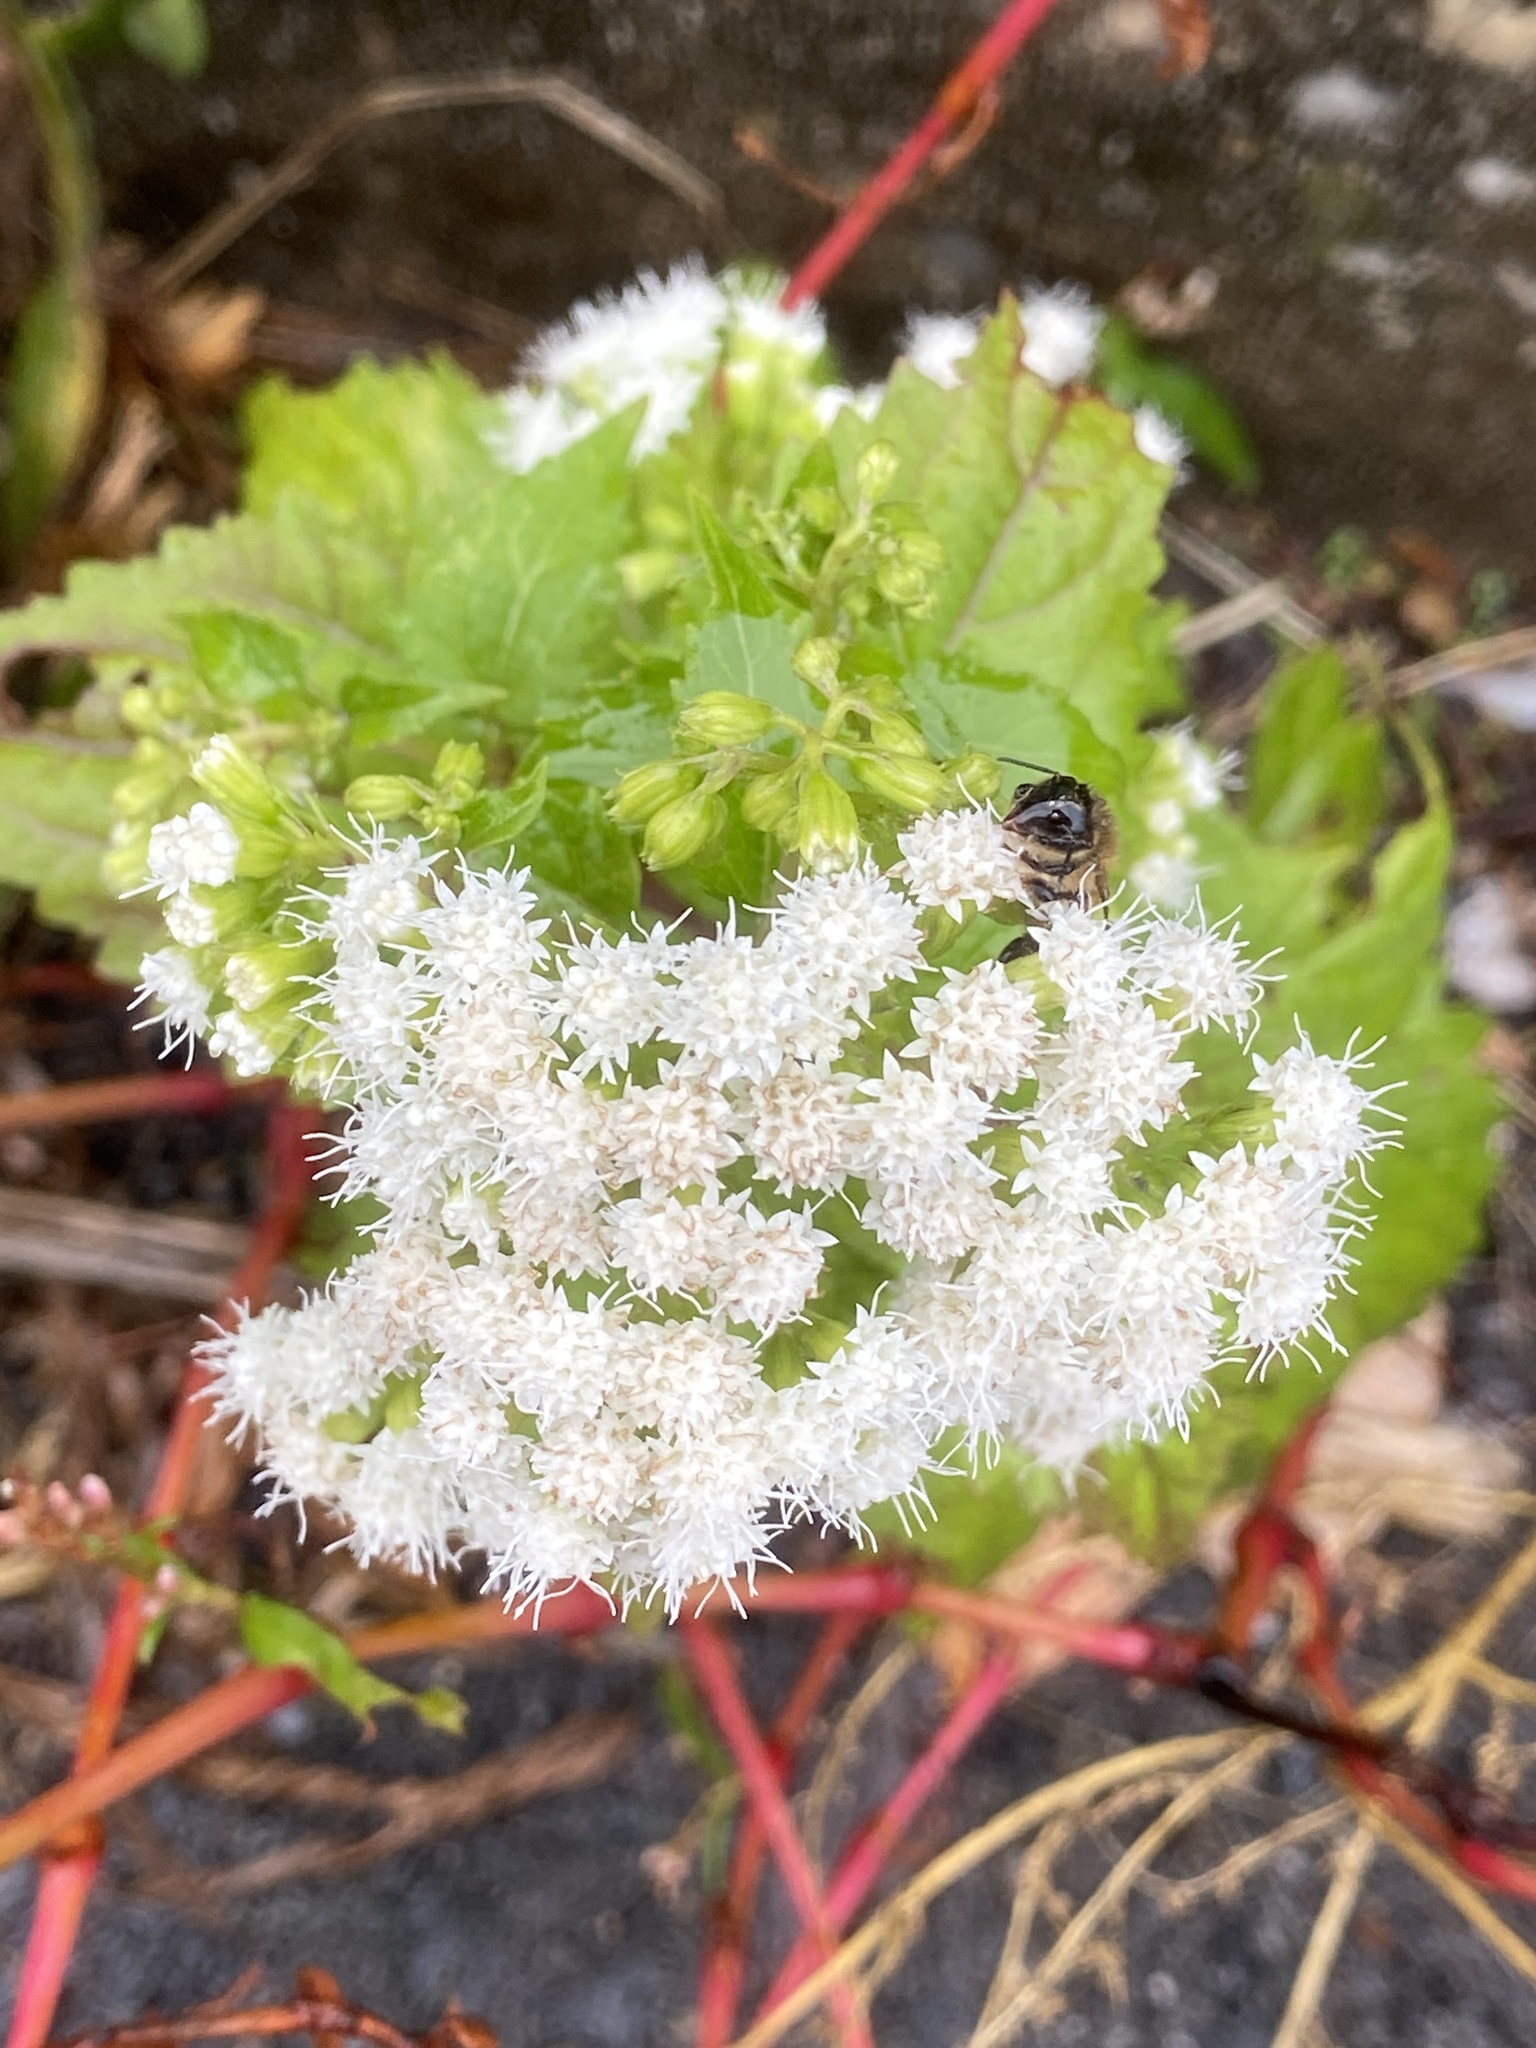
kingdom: Plantae
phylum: Tracheophyta
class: Magnoliopsida
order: Asterales
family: Asteraceae
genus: Ageratina
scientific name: Ageratina altissima
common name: White snakeroot
